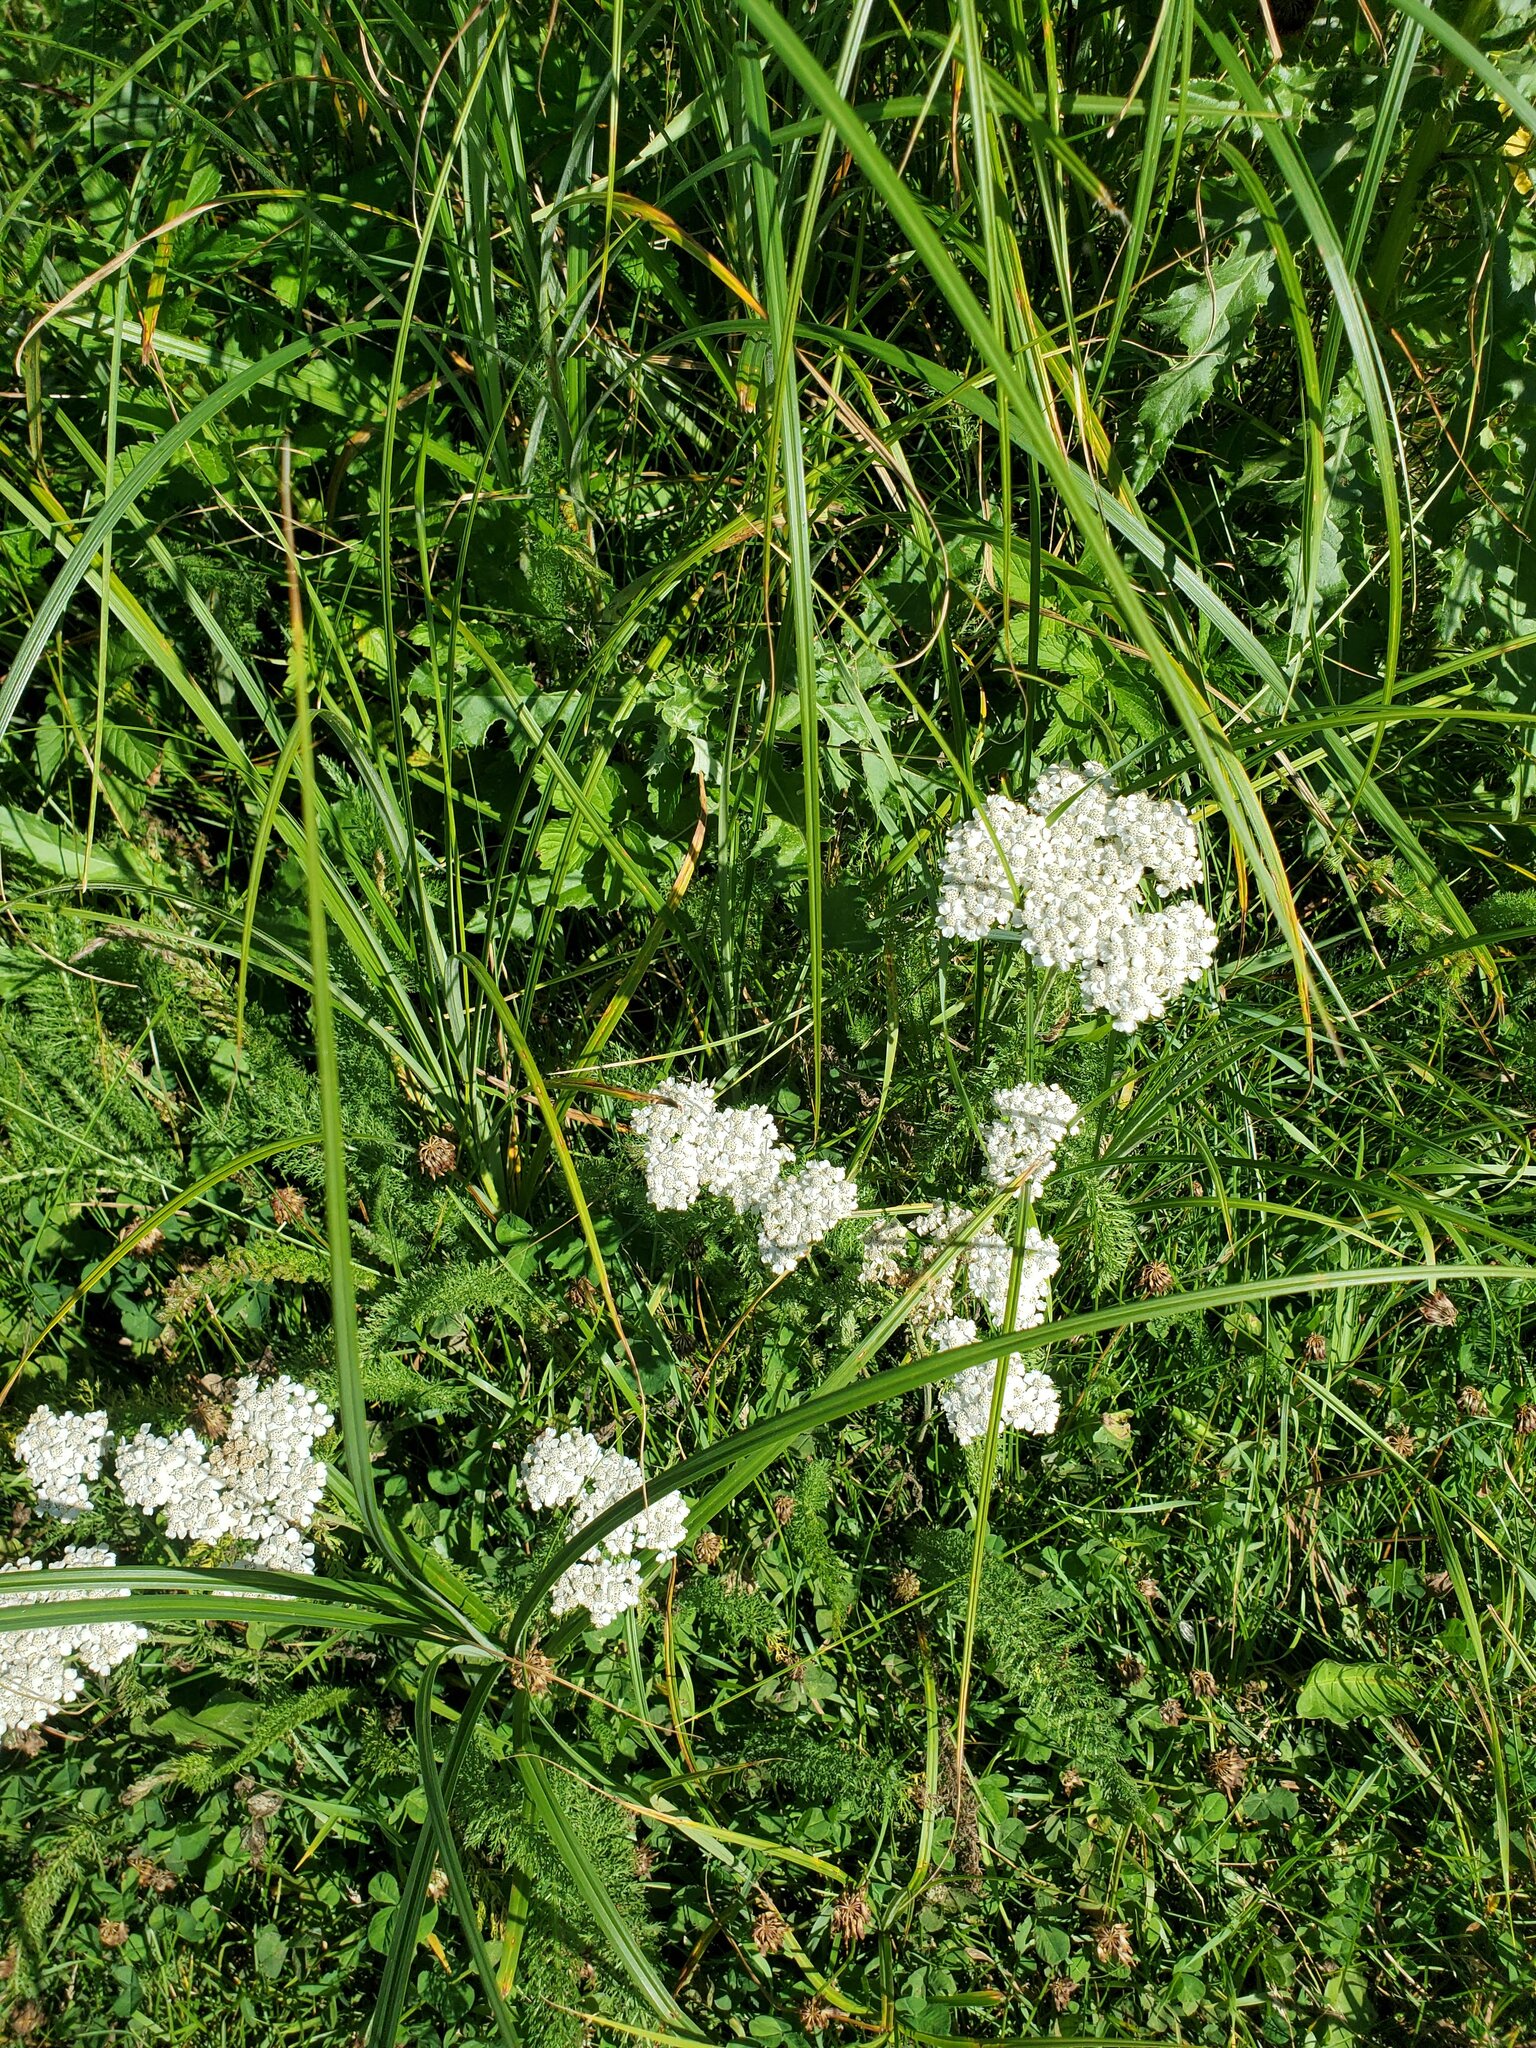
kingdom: Plantae
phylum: Tracheophyta
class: Magnoliopsida
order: Asterales
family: Asteraceae
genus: Achillea
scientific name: Achillea millefolium
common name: Yarrow
